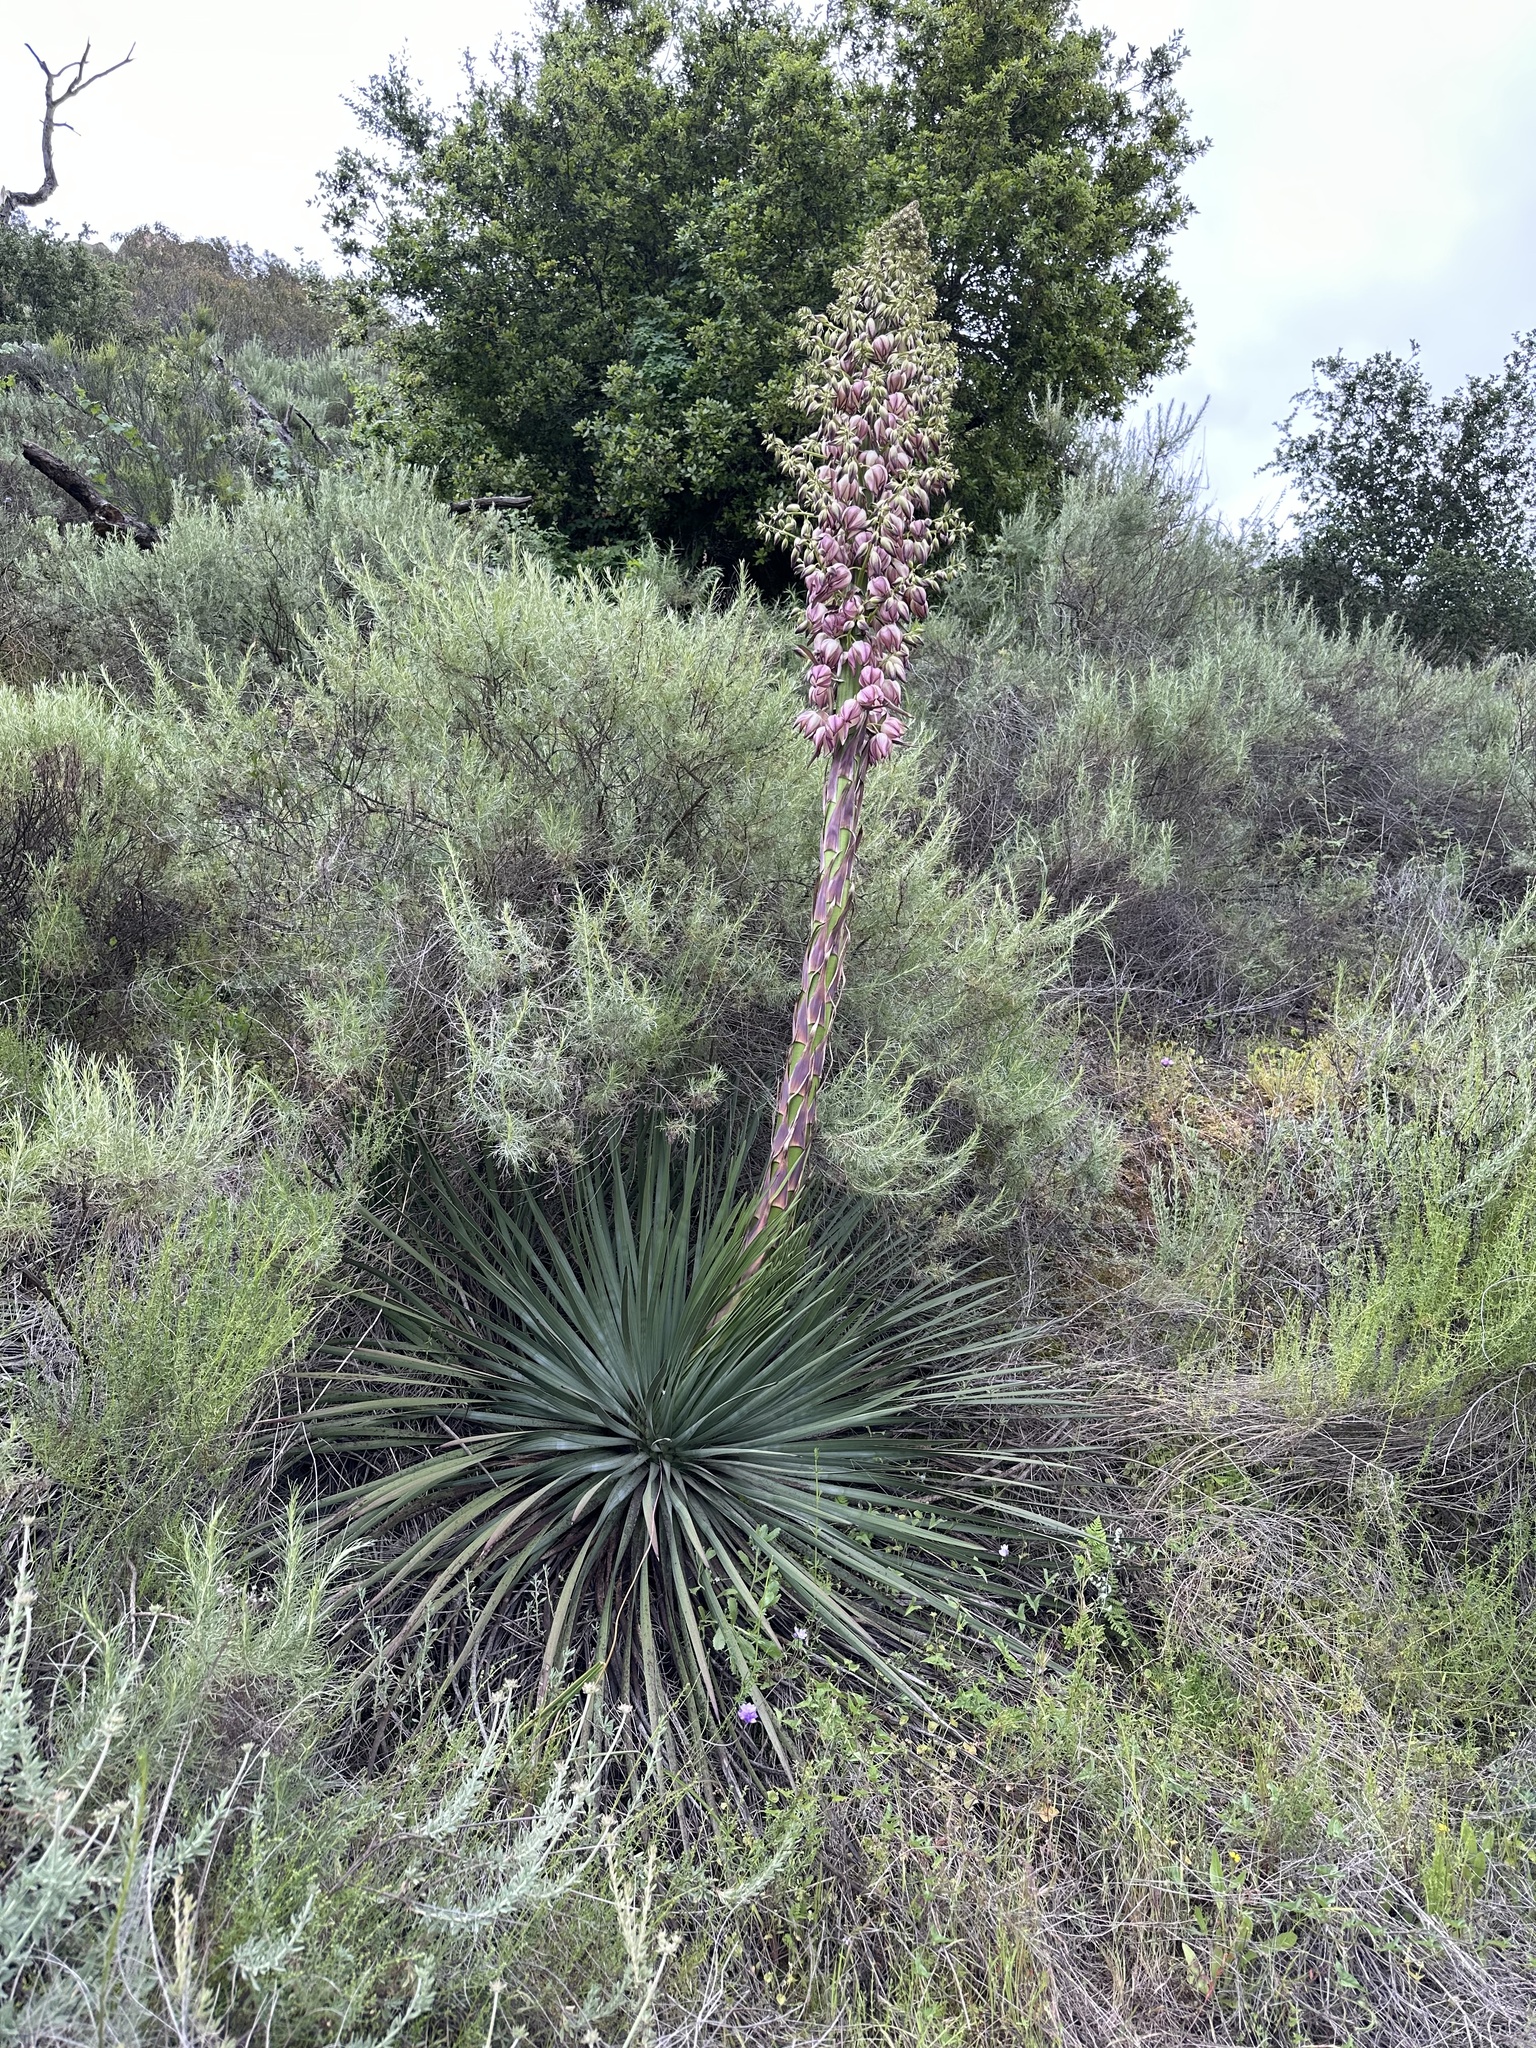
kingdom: Plantae
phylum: Tracheophyta
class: Liliopsida
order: Asparagales
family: Asparagaceae
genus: Hesperoyucca
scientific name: Hesperoyucca whipplei
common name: Our lord's-candle
